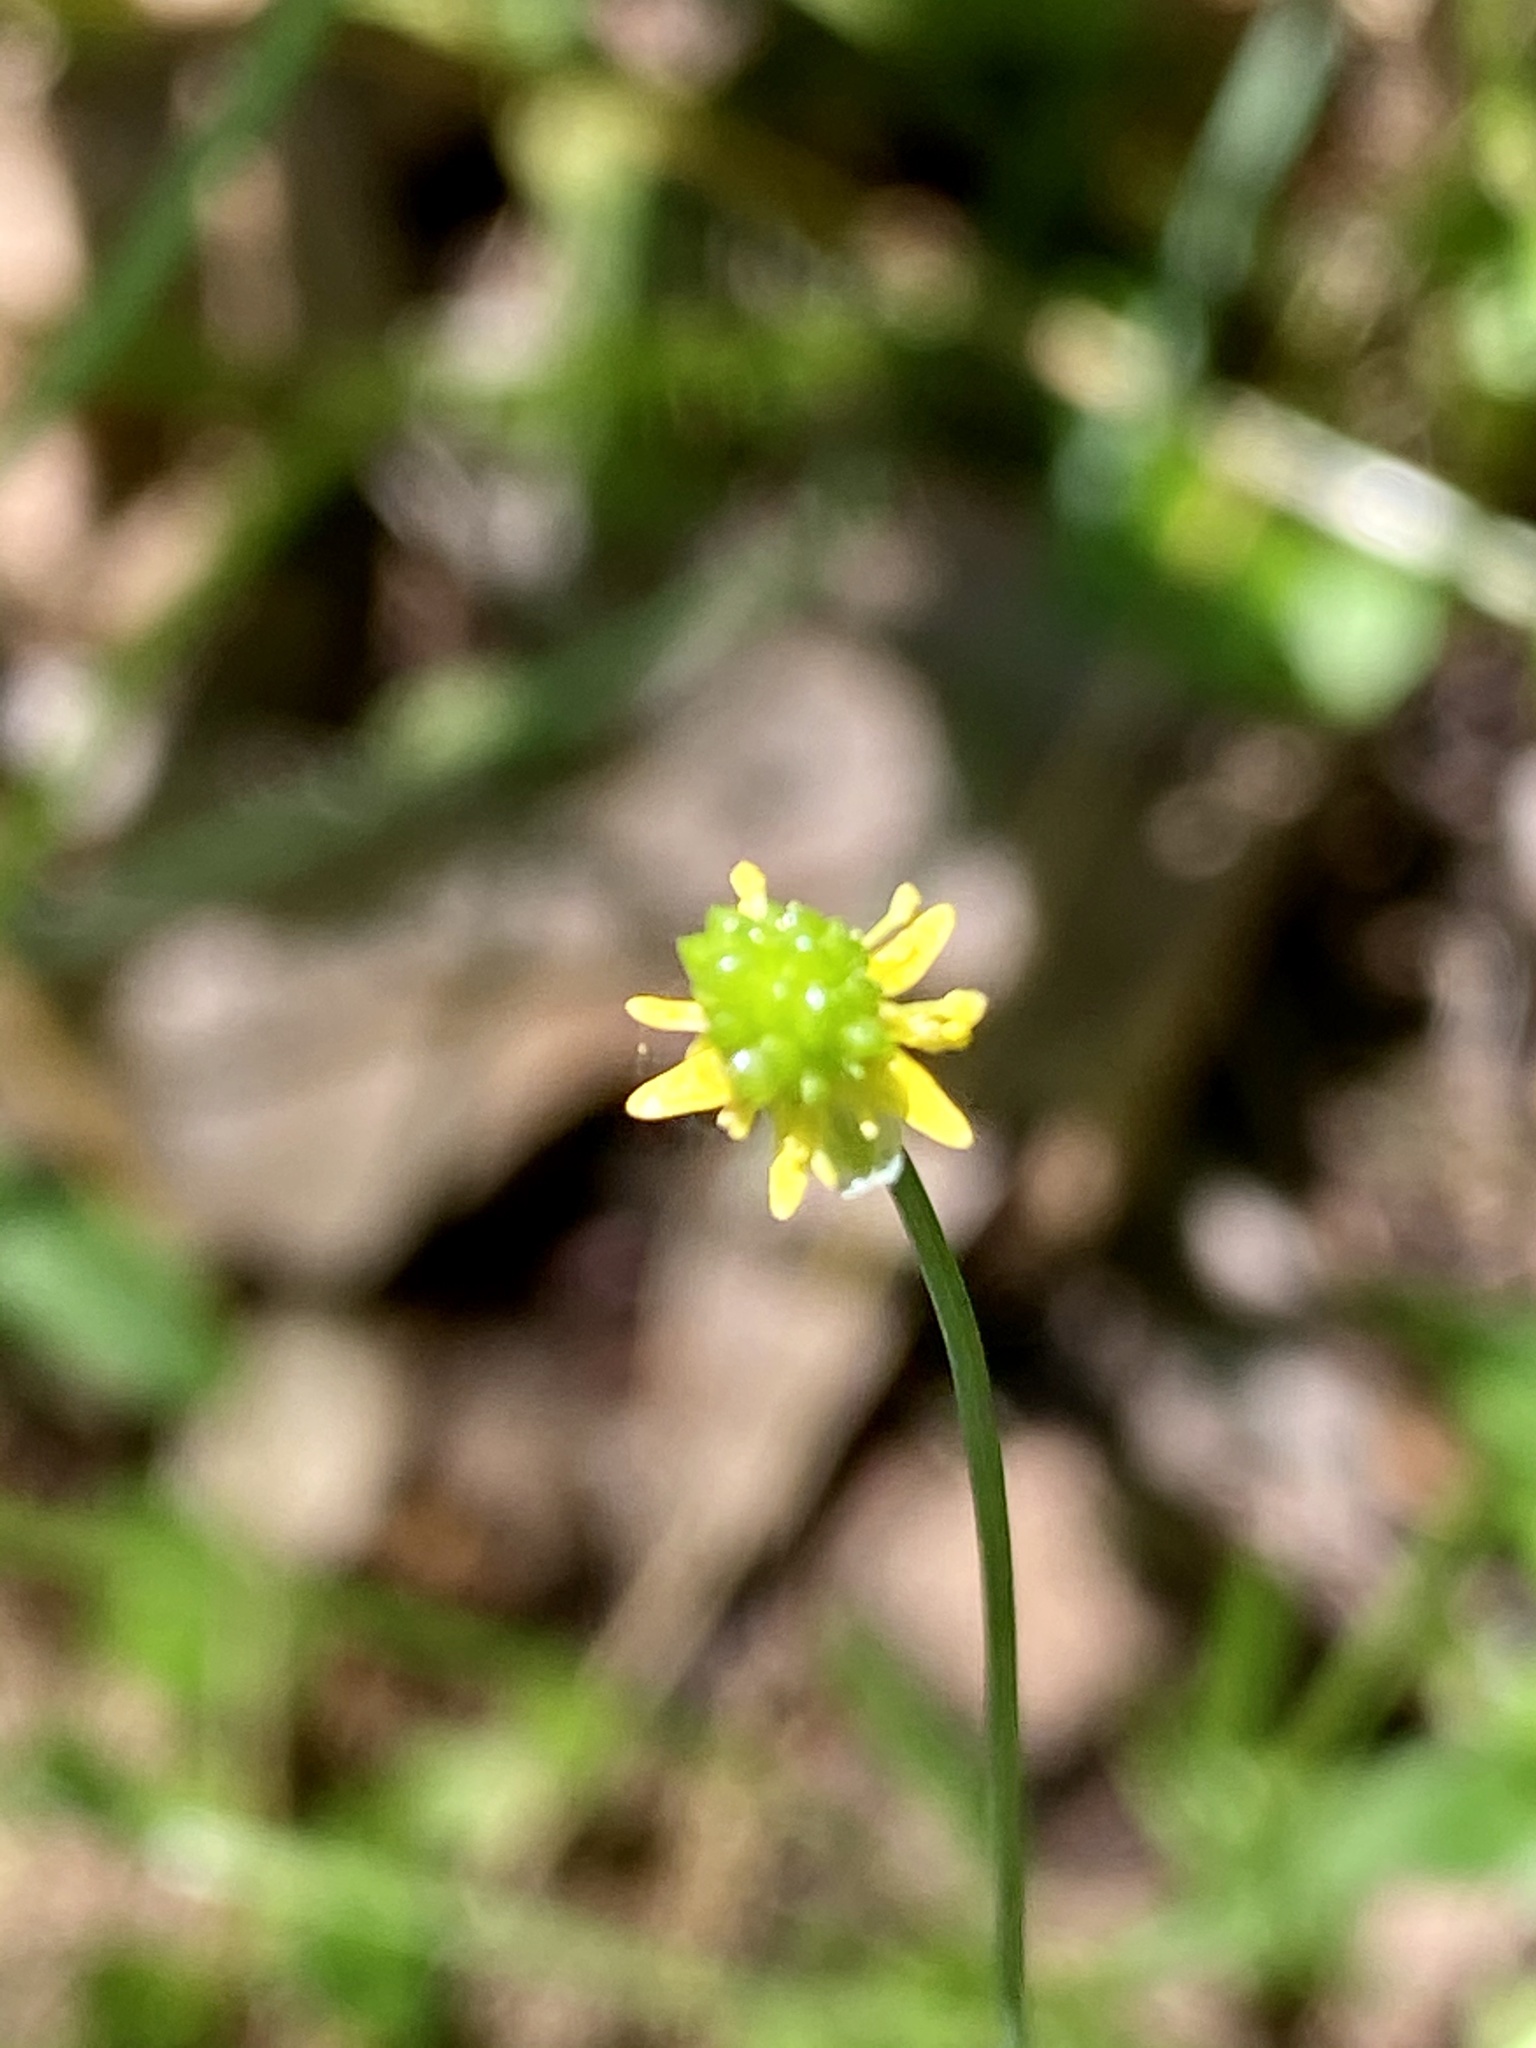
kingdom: Plantae
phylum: Tracheophyta
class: Magnoliopsida
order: Ranunculales
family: Ranunculaceae
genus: Ranunculus
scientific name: Ranunculus abortivus
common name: Early wood buttercup
